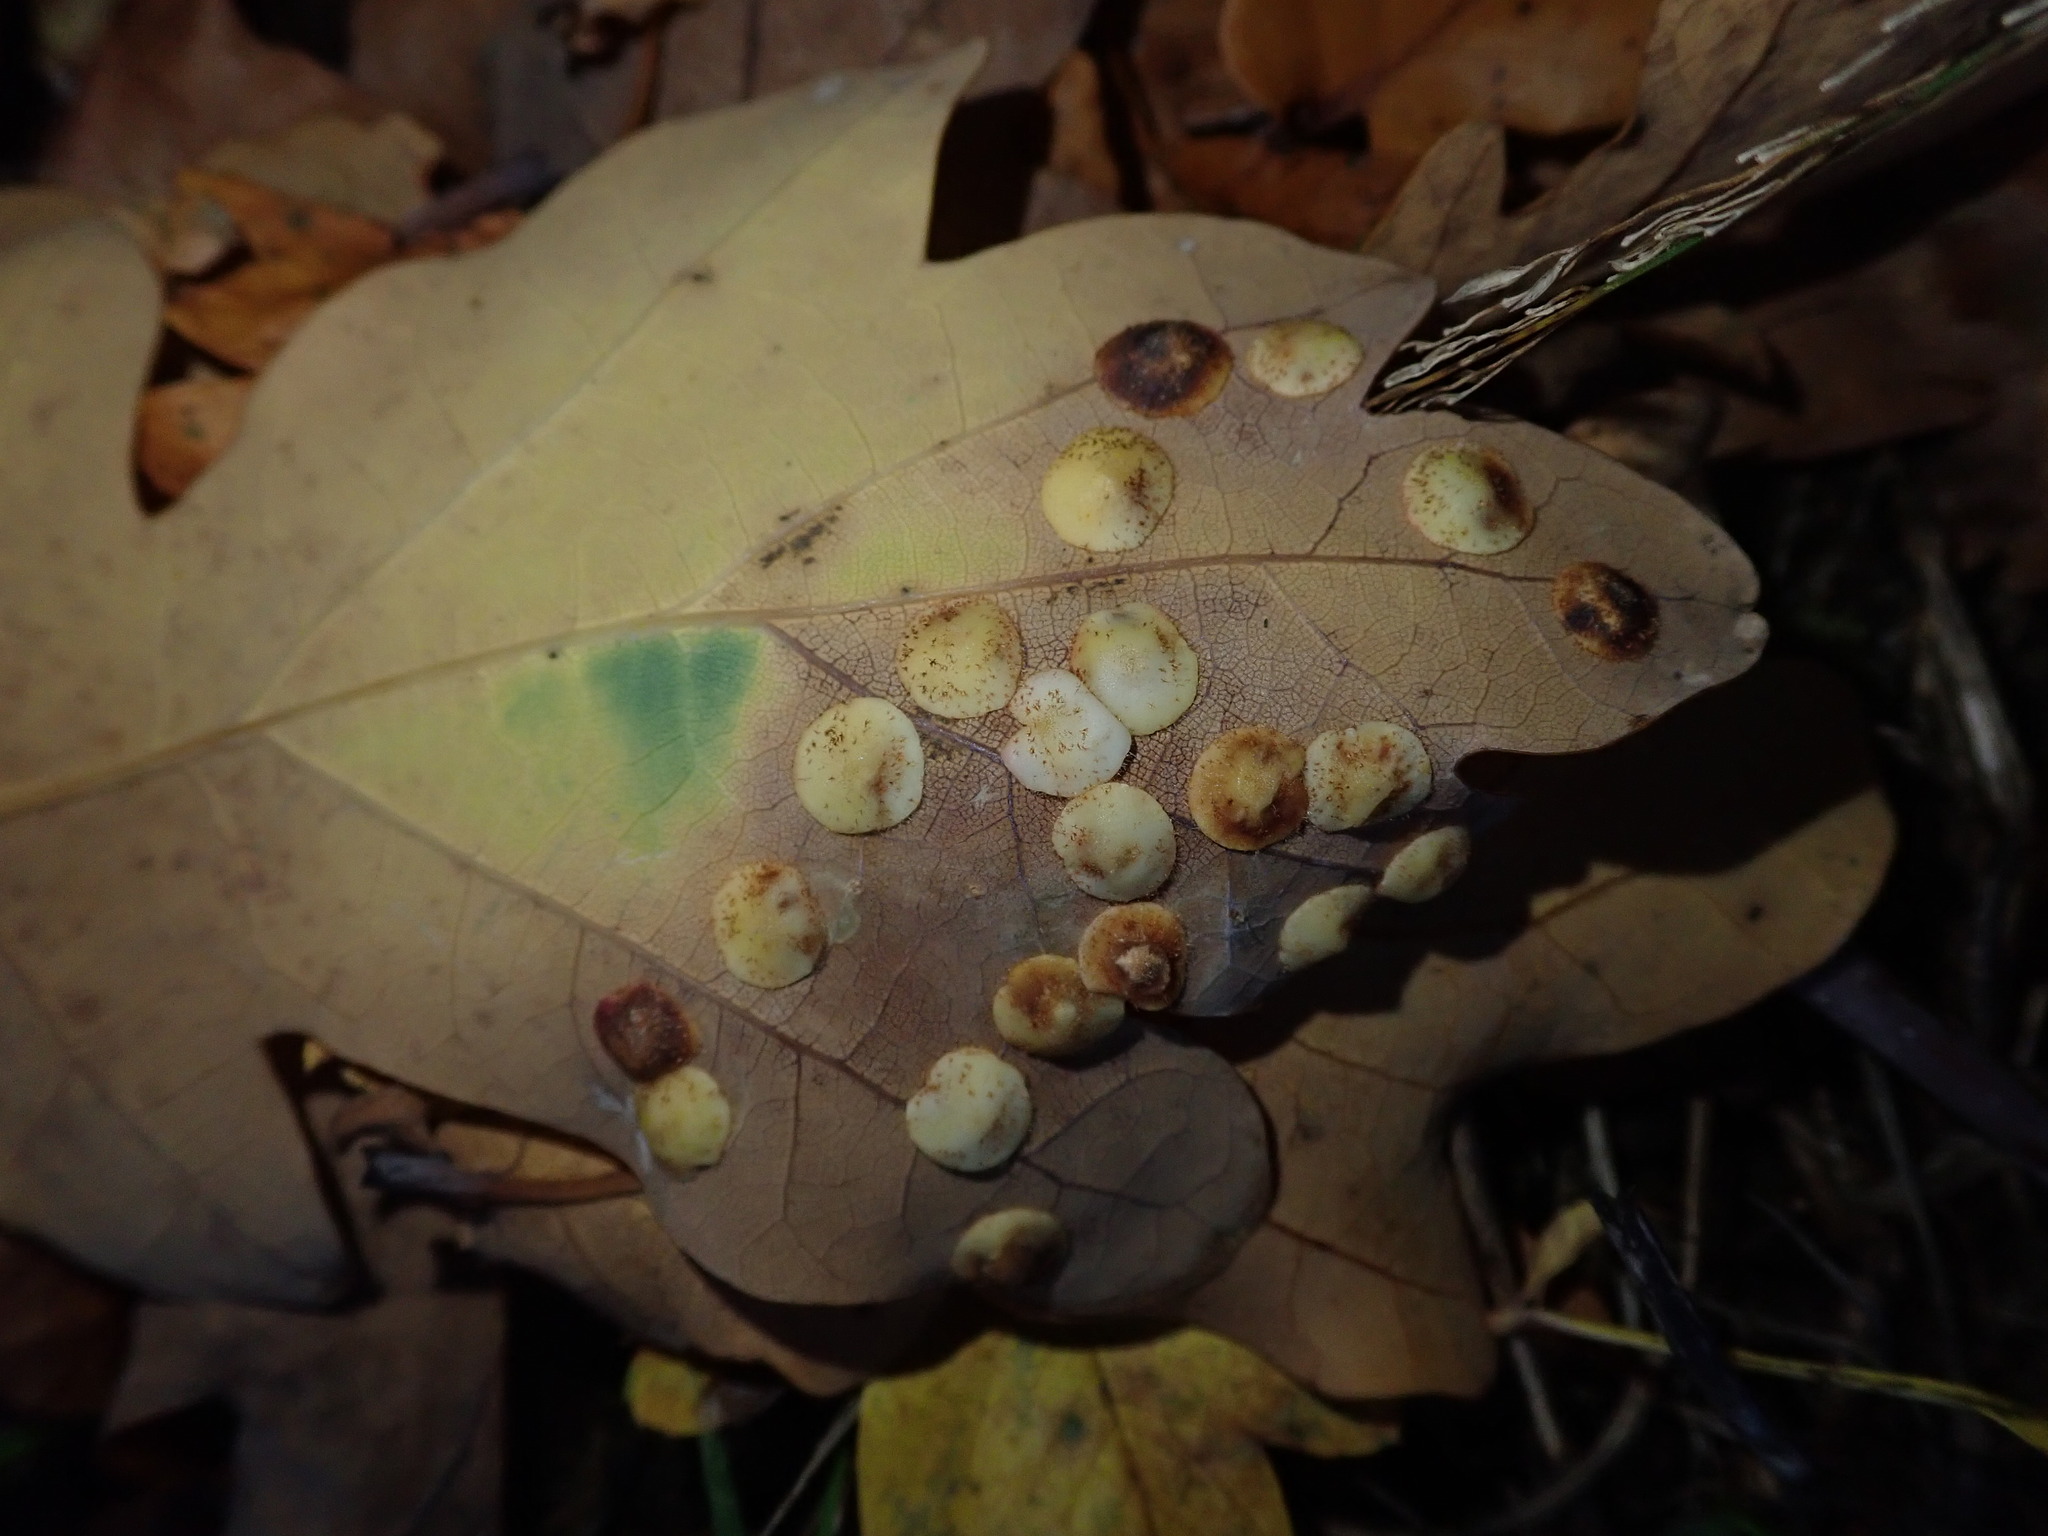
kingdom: Animalia
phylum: Arthropoda
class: Insecta
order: Hymenoptera
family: Cynipidae
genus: Neuroterus
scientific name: Neuroterus quercusbaccarum
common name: Common spangle gall
